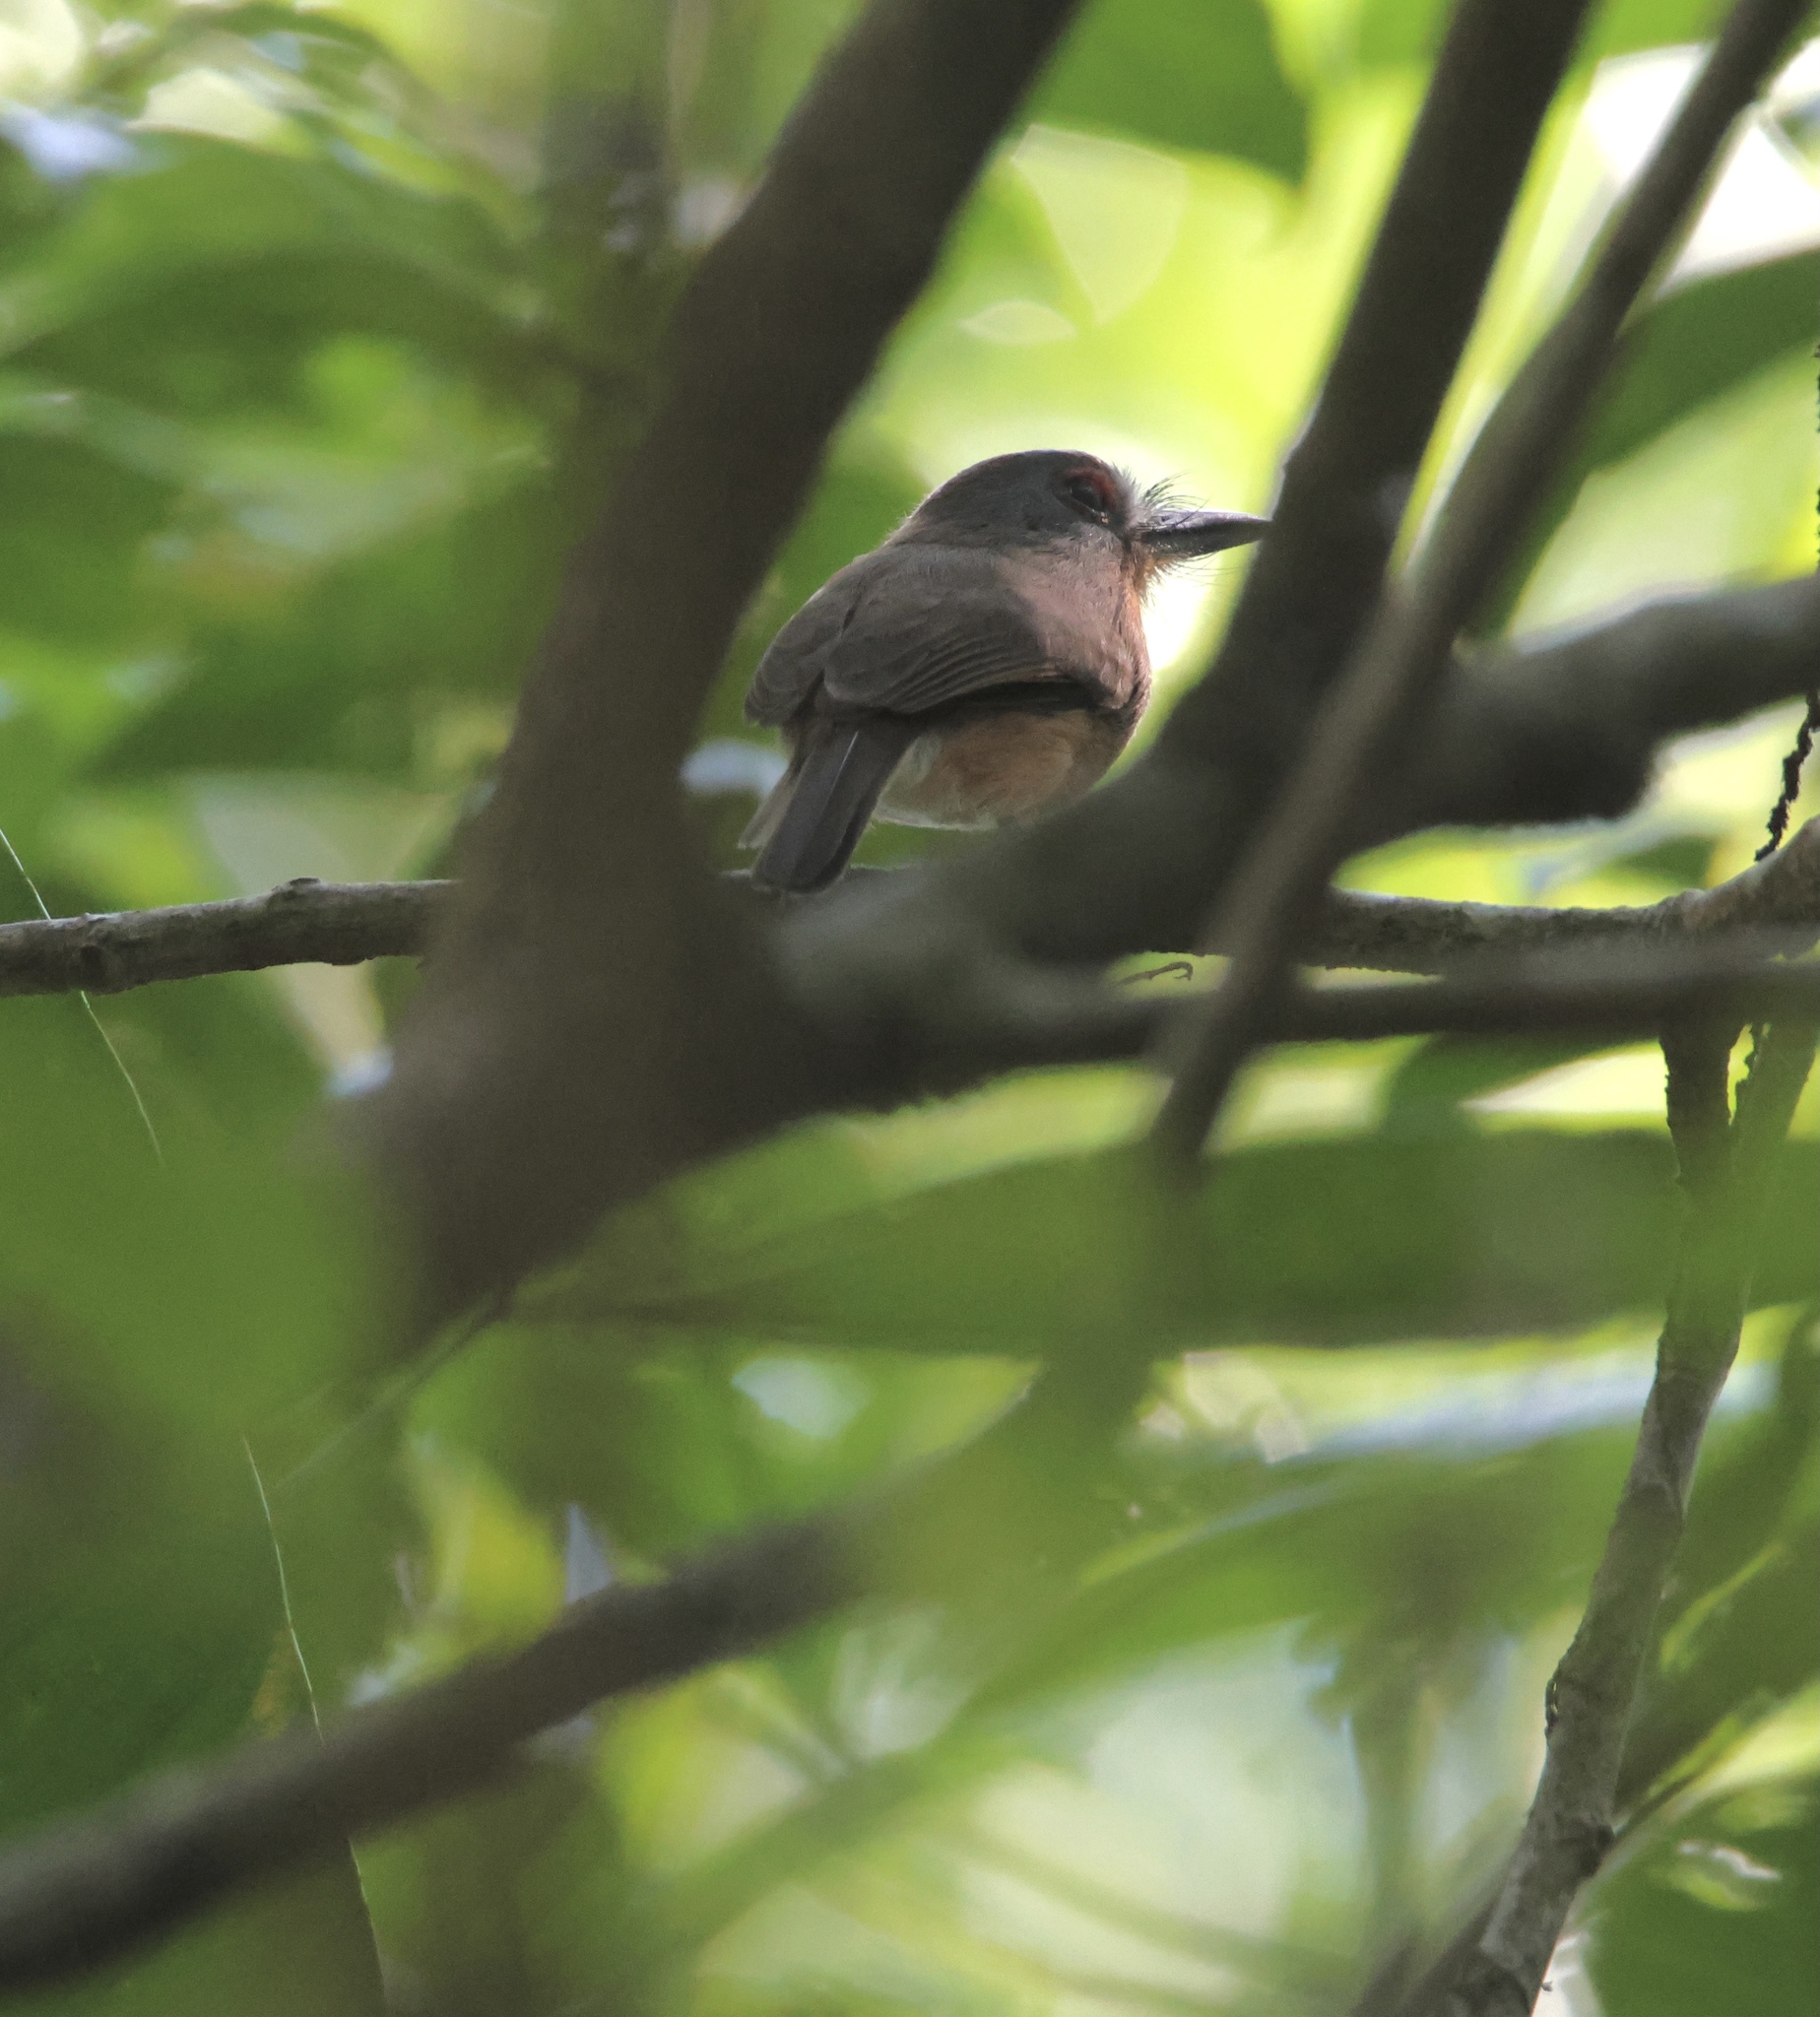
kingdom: Animalia
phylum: Chordata
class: Aves
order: Piciformes
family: Bucconidae
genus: Nonnula
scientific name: Nonnula frontalis
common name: Grey-cheeked nunlet
